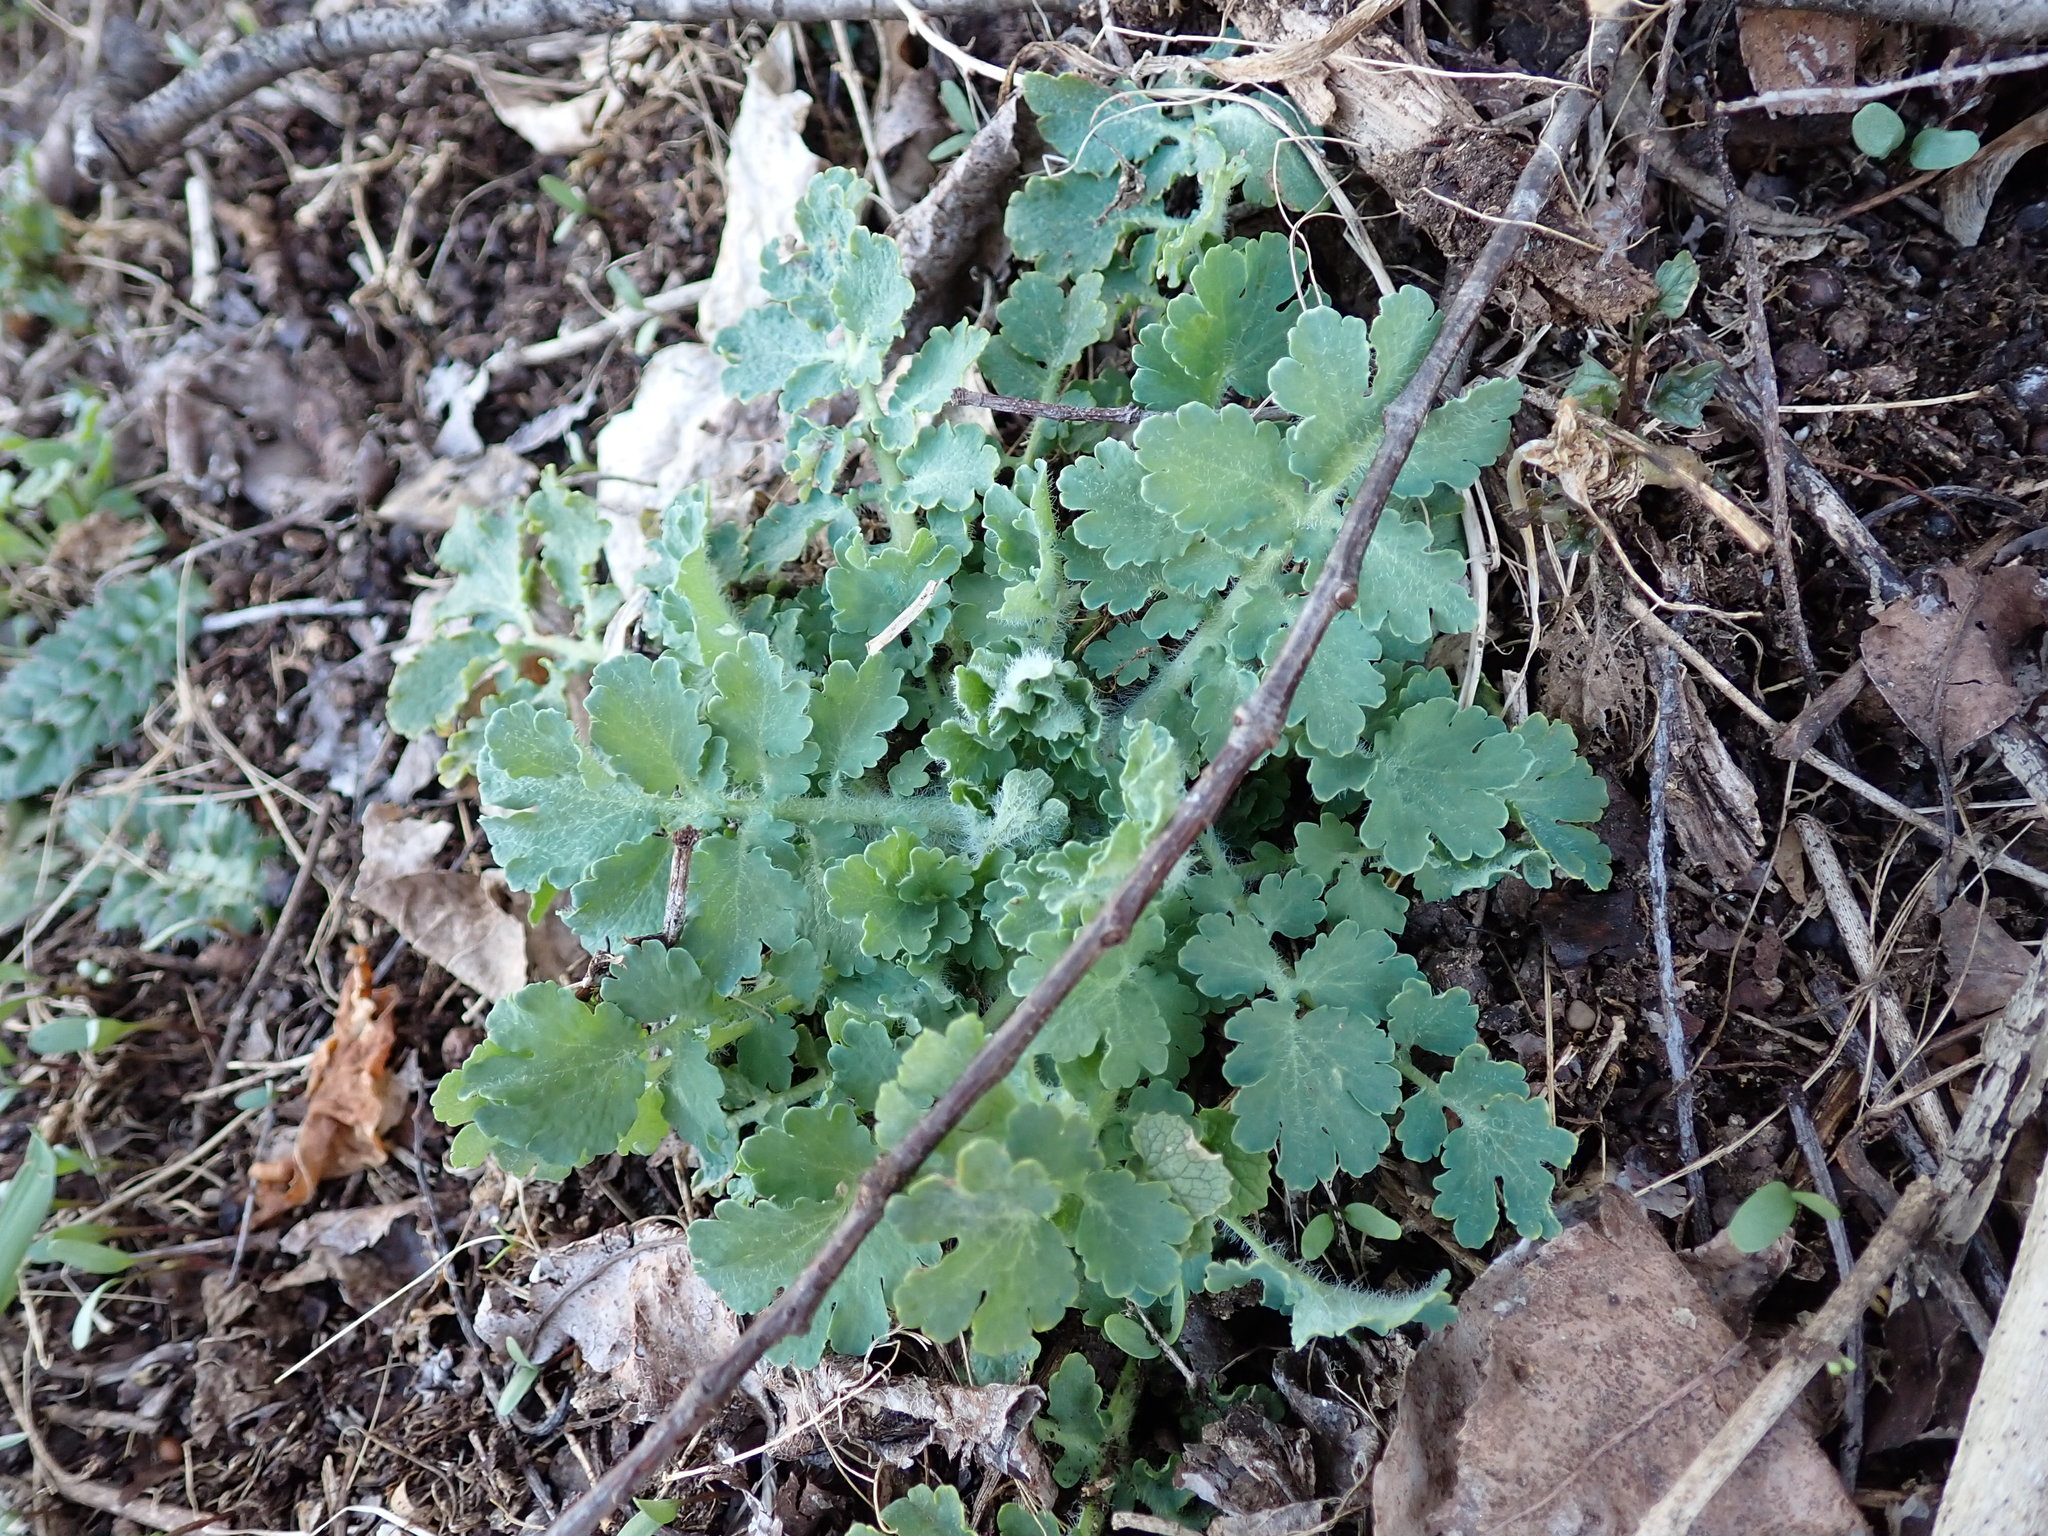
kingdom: Plantae
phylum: Tracheophyta
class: Magnoliopsida
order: Ranunculales
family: Papaveraceae
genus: Chelidonium
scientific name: Chelidonium majus
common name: Greater celandine
